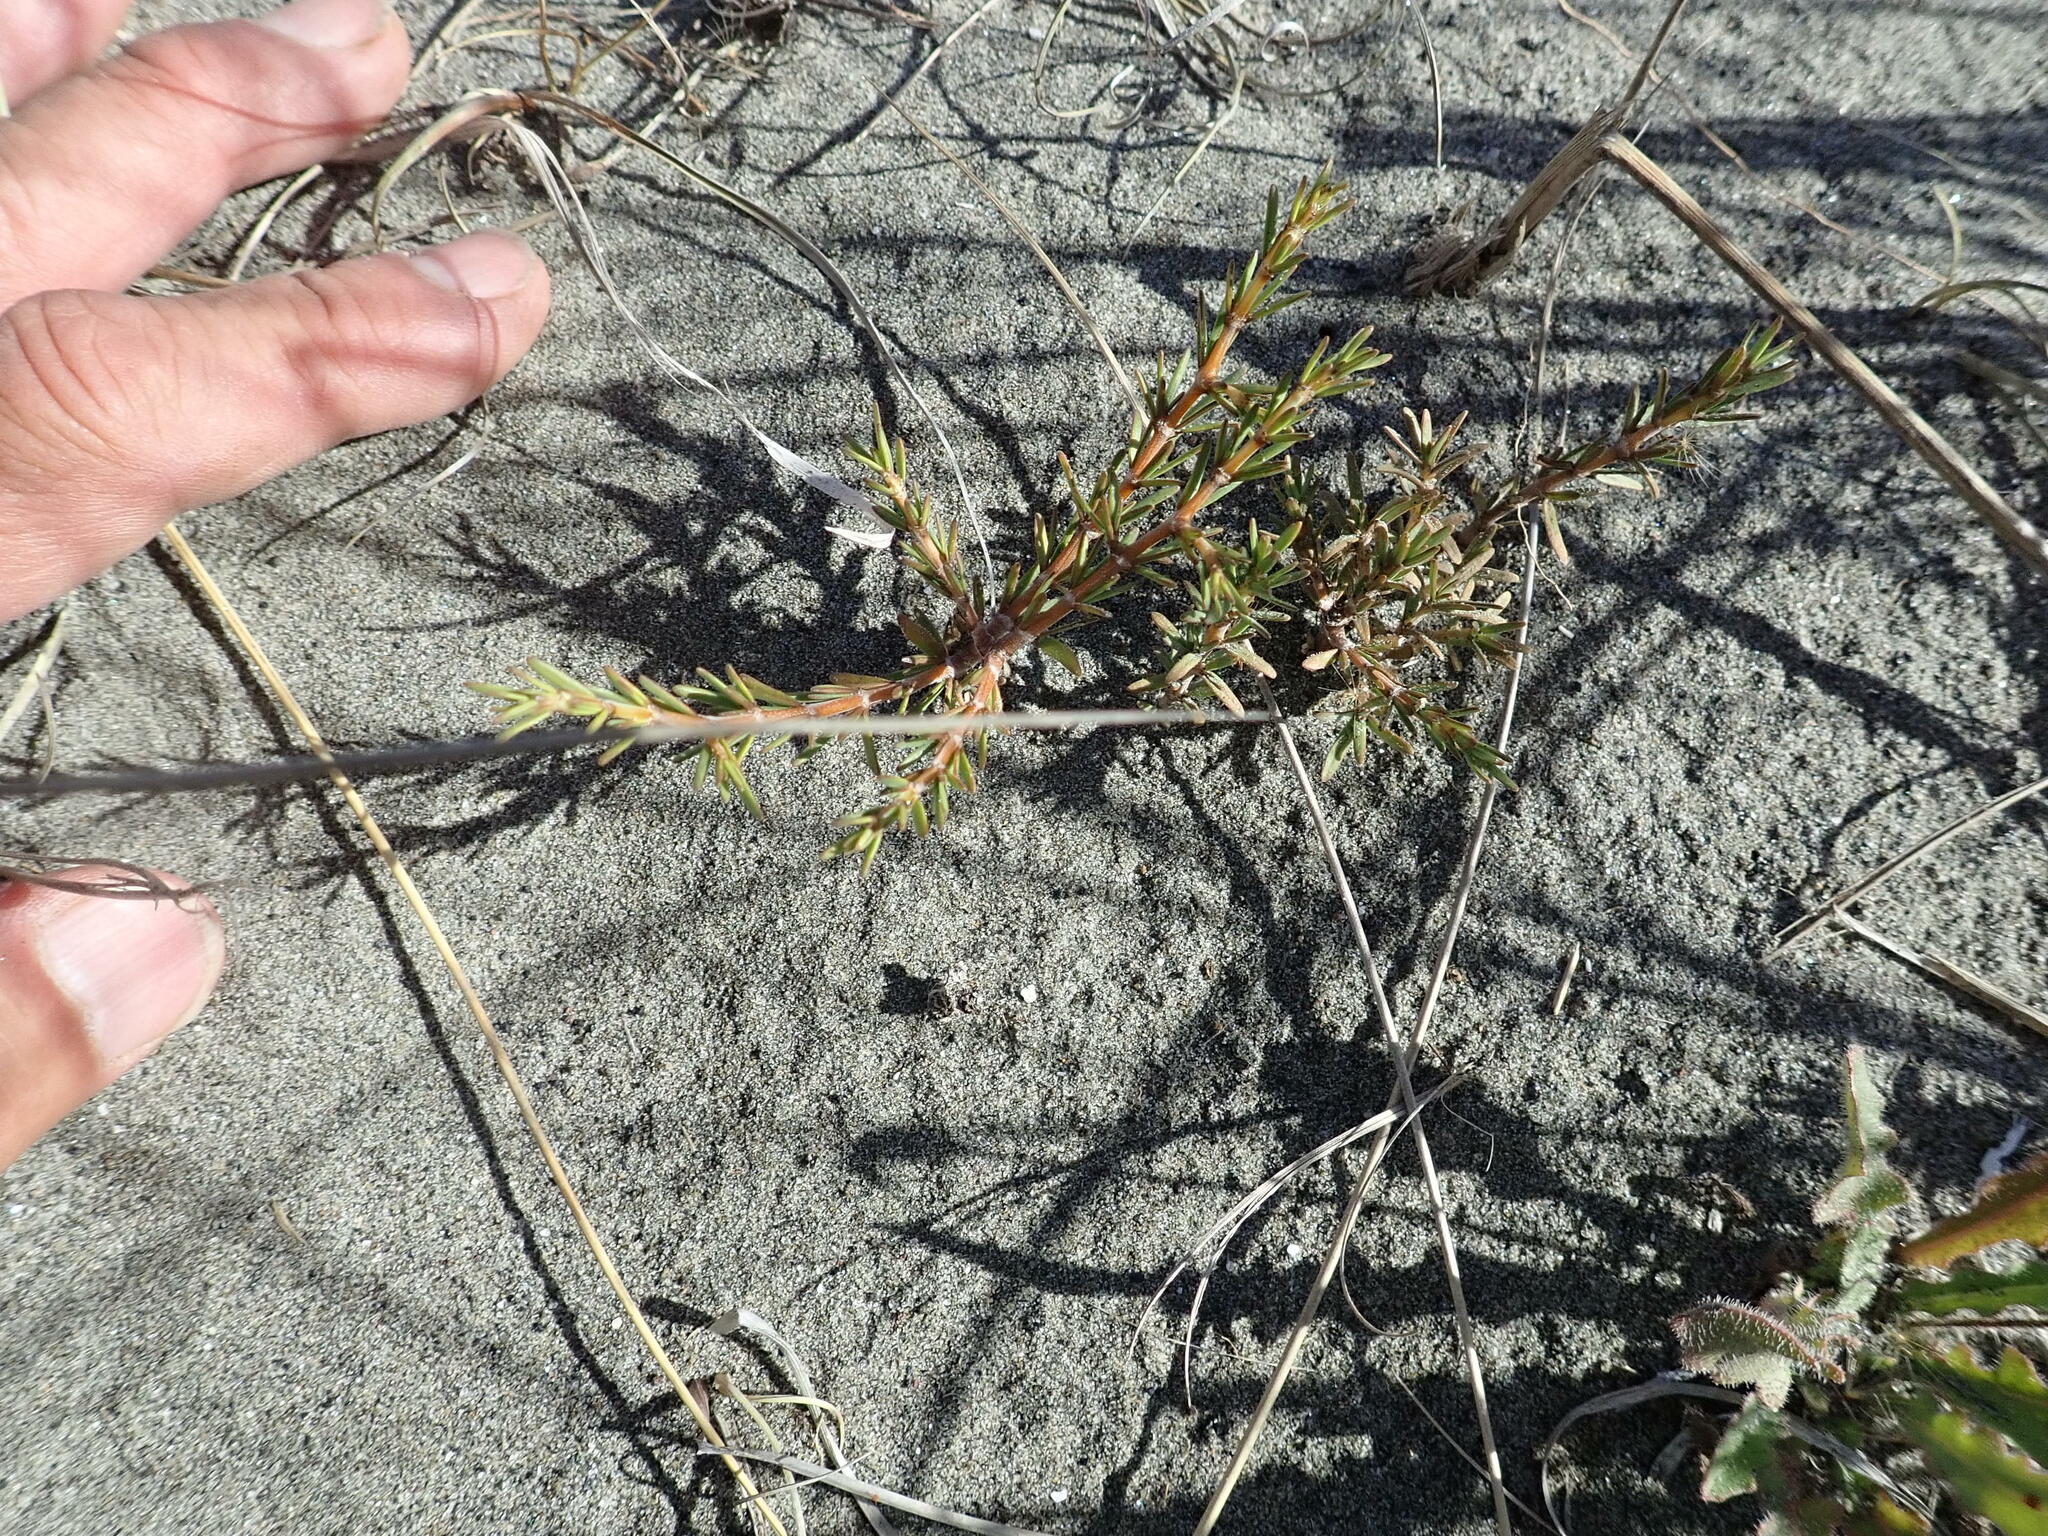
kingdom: Plantae
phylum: Tracheophyta
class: Magnoliopsida
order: Gentianales
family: Rubiaceae
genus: Coprosma
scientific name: Coprosma acerosa
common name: Sand coprosma
